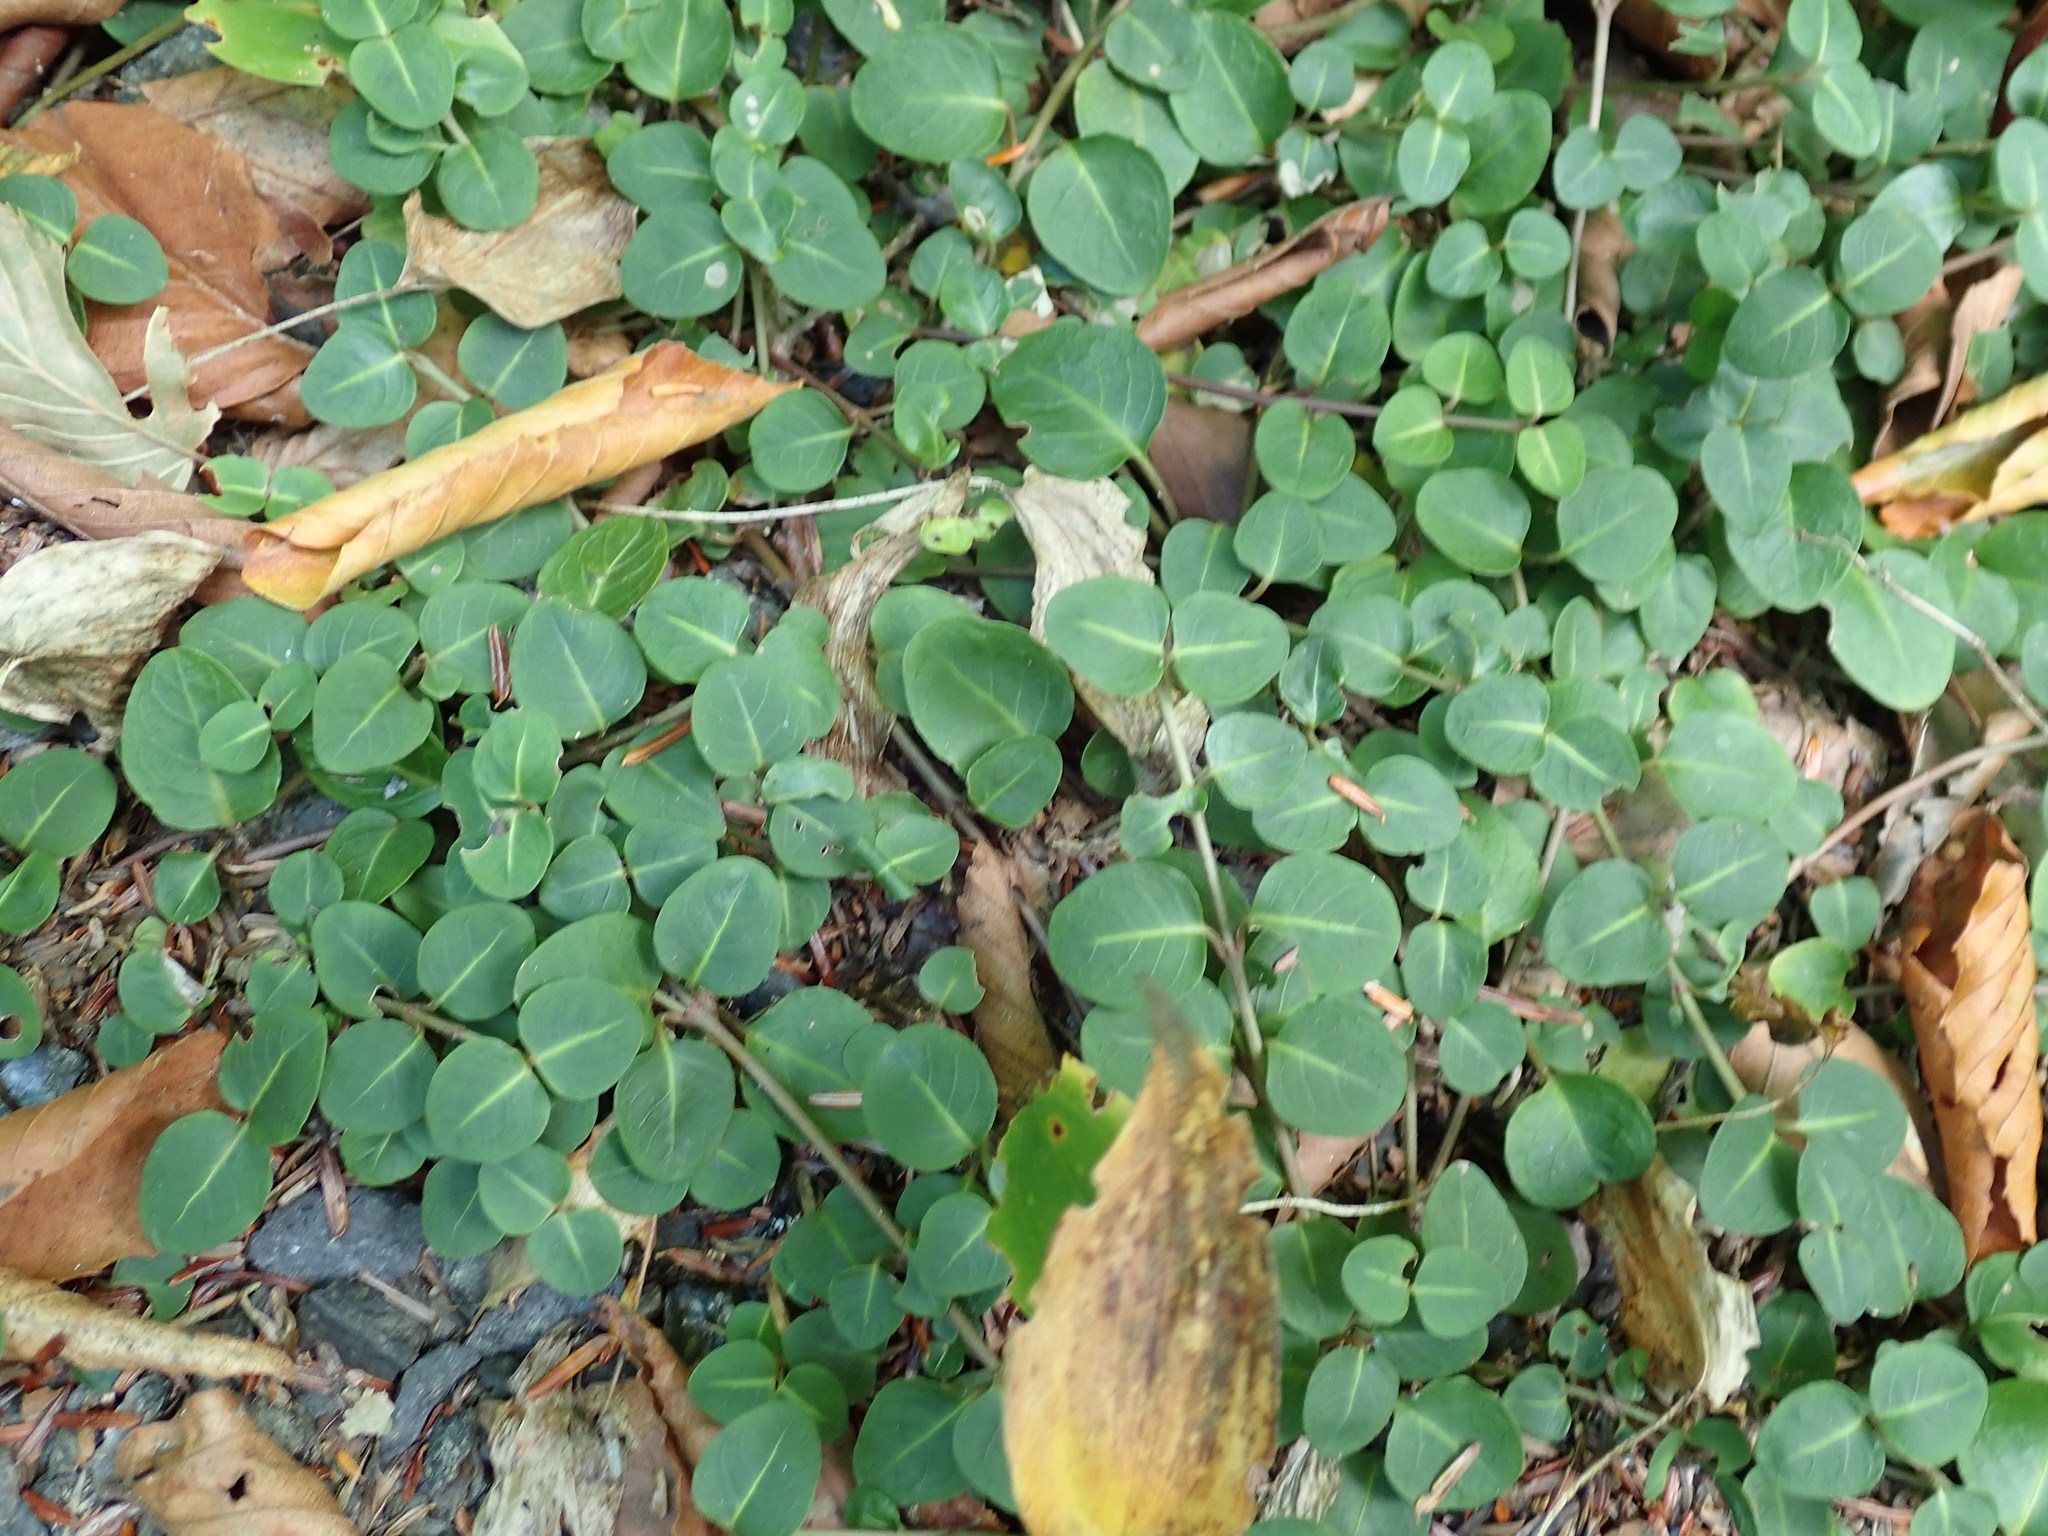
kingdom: Plantae
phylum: Tracheophyta
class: Magnoliopsida
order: Gentianales
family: Rubiaceae
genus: Mitchella
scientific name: Mitchella repens
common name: Partridge-berry
